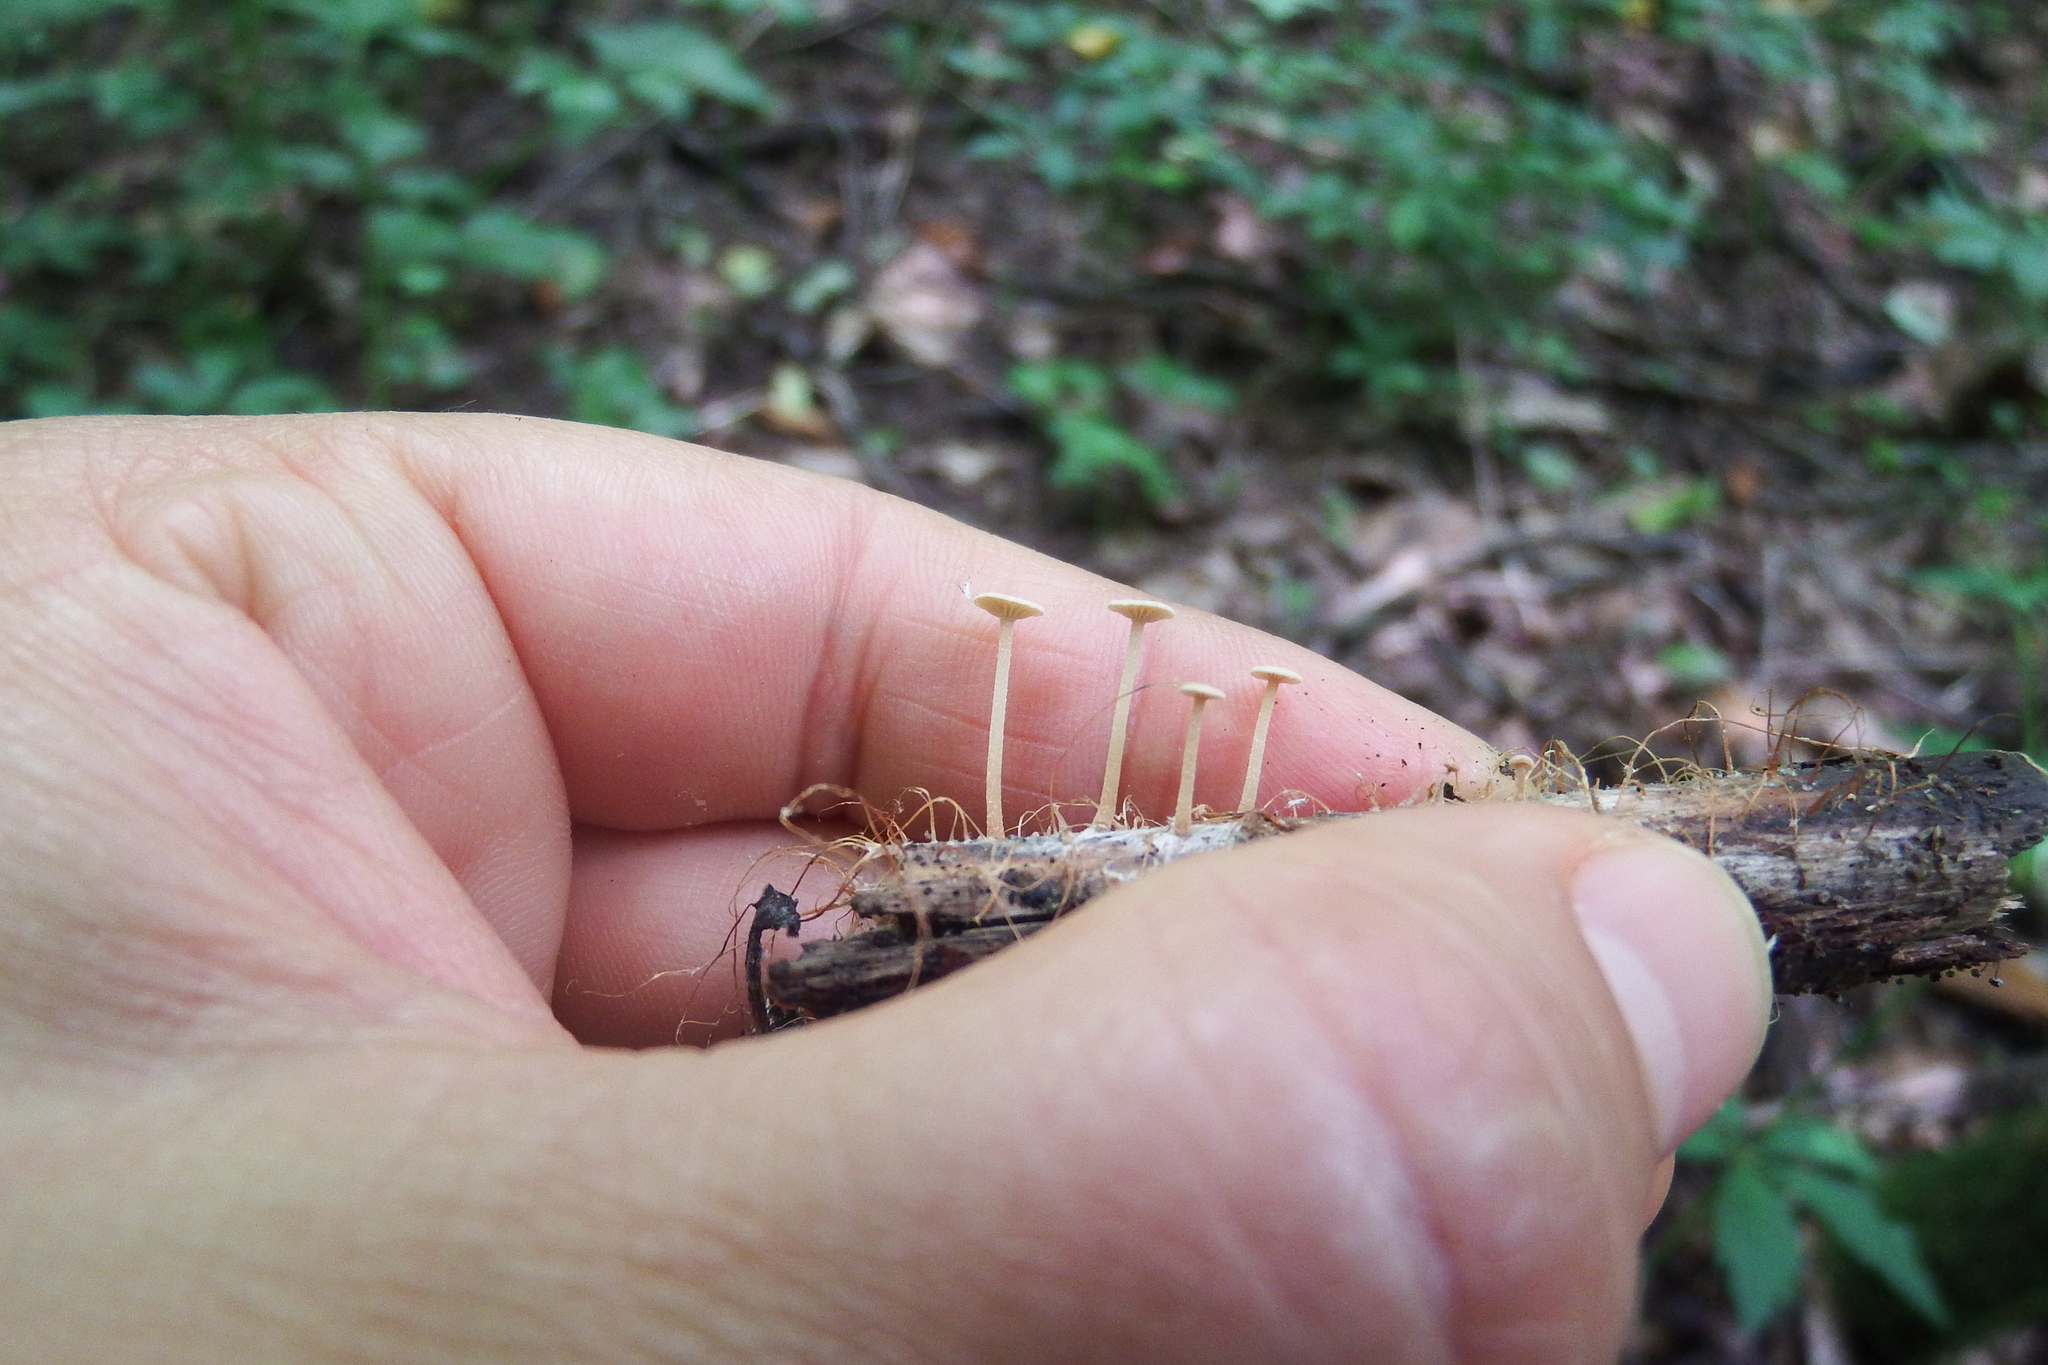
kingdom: Fungi
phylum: Basidiomycota
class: Agaricomycetes
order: Agaricales
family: Omphalotaceae
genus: Mycetinis
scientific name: Mycetinis opacus
